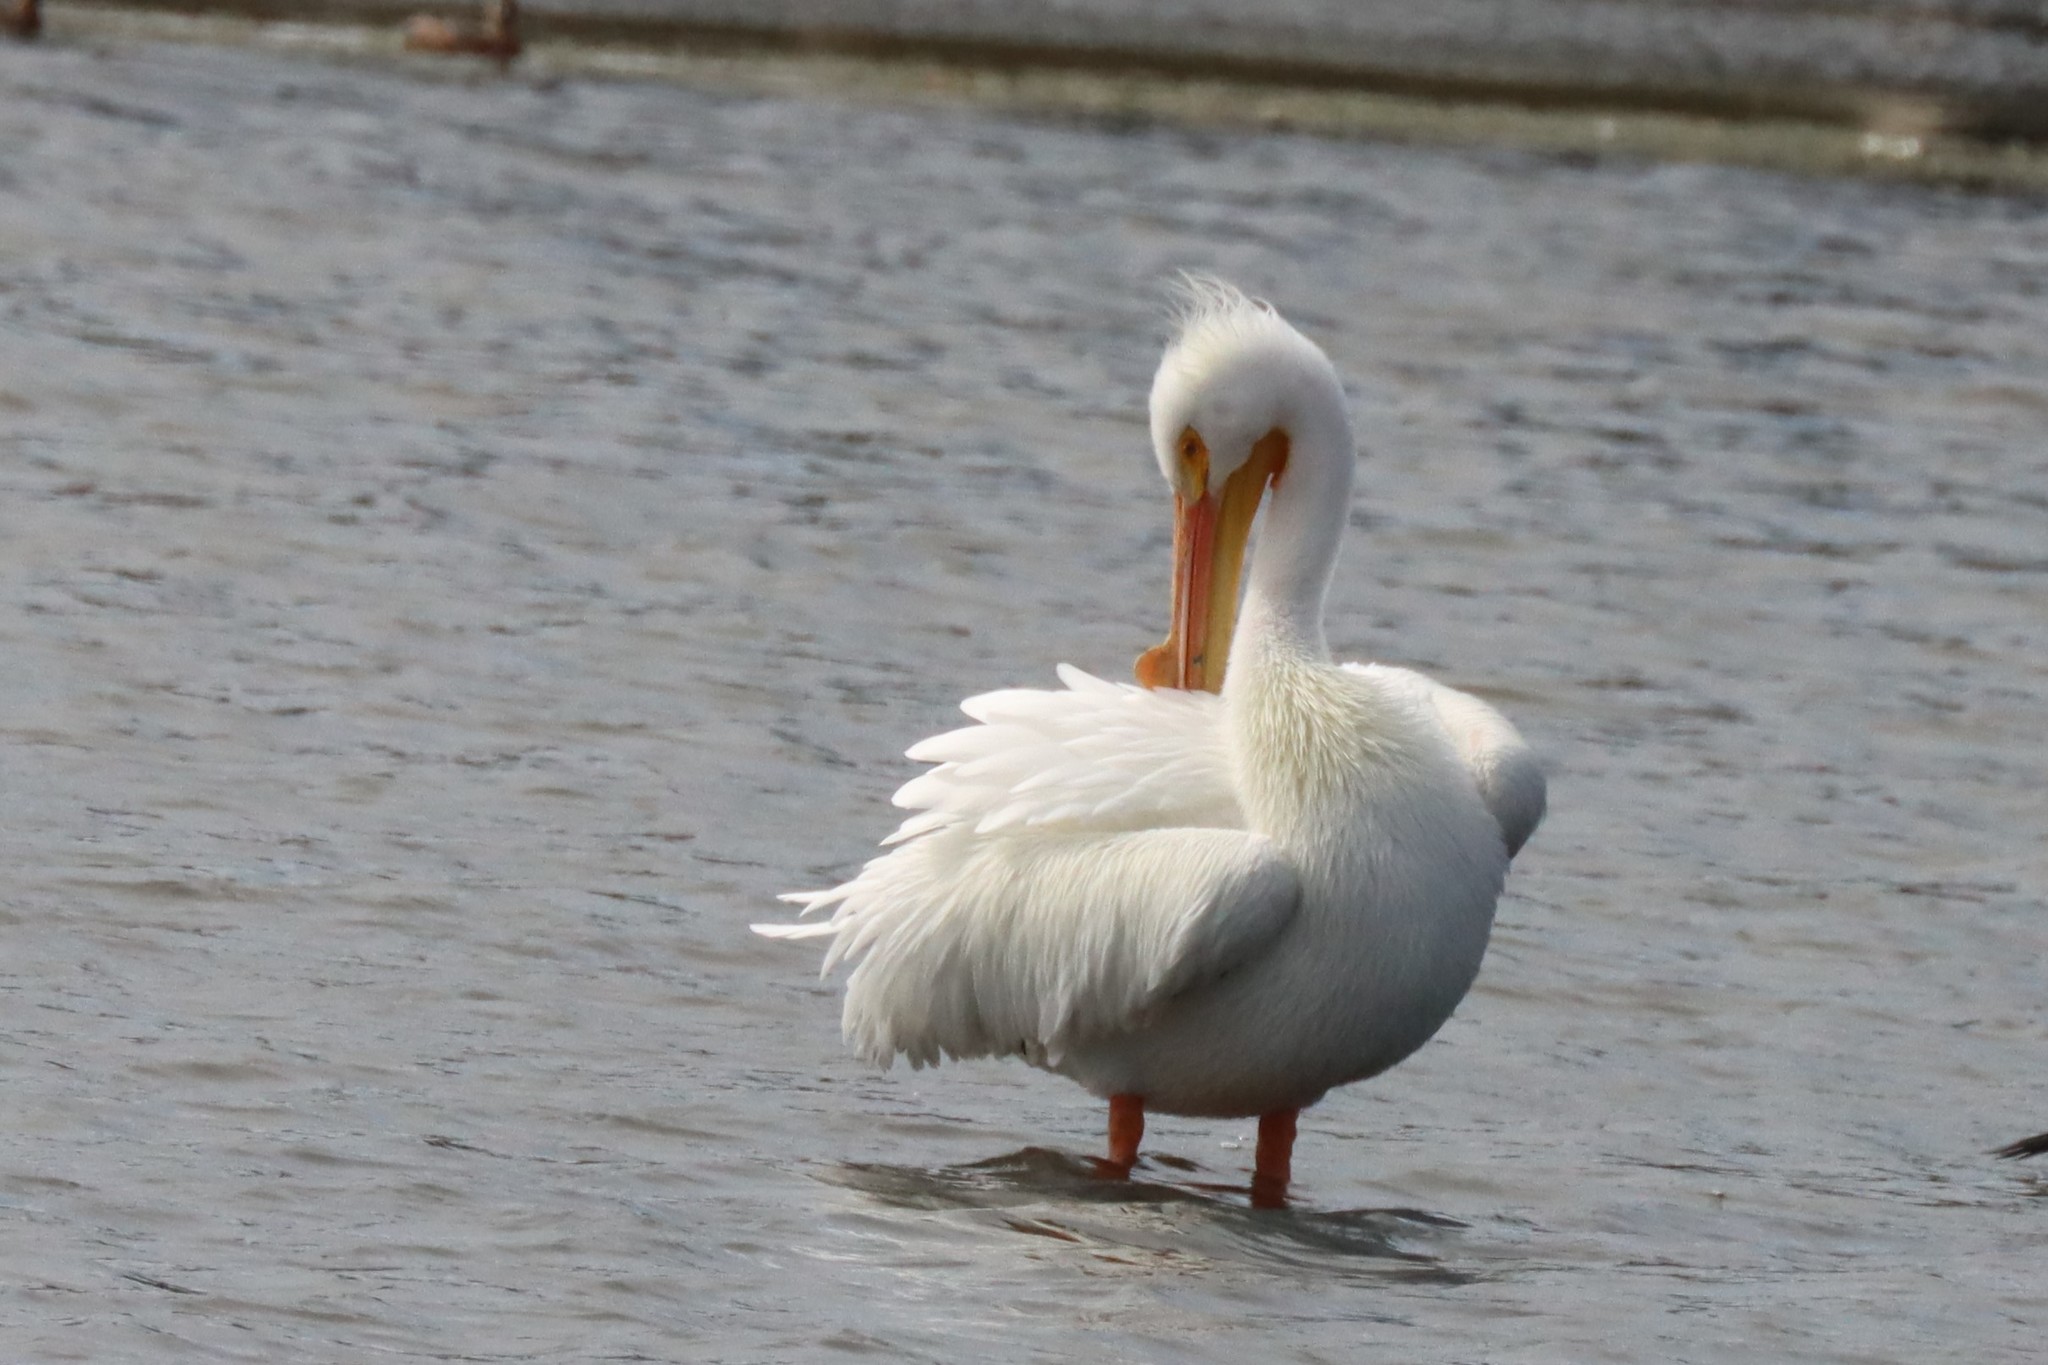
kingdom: Animalia
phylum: Chordata
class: Aves
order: Pelecaniformes
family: Pelecanidae
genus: Pelecanus
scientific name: Pelecanus erythrorhynchos
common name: American white pelican
